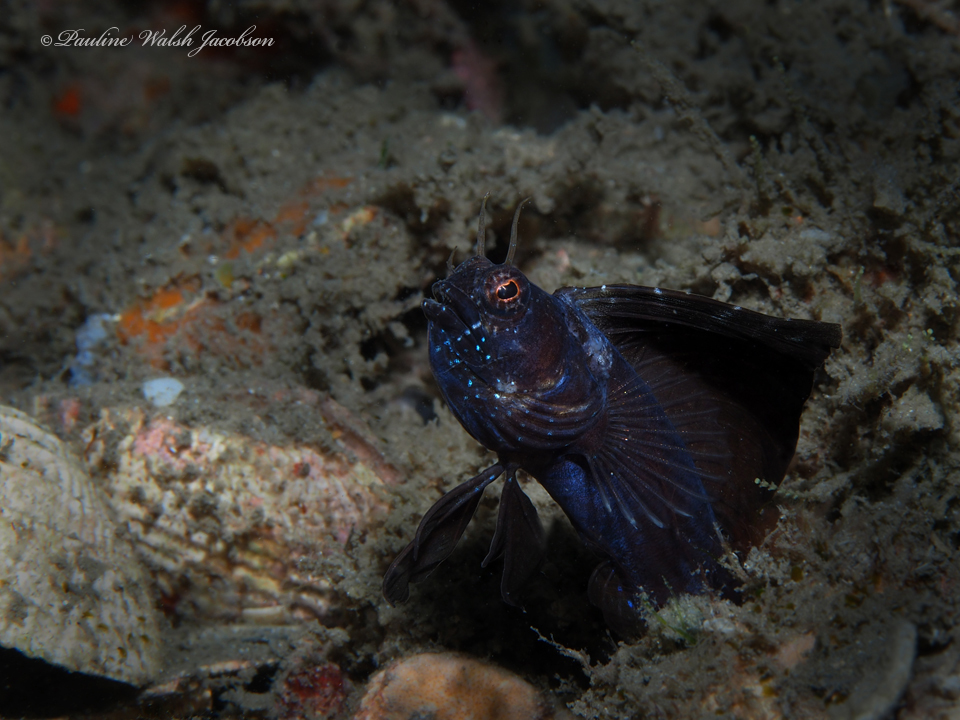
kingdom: Animalia
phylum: Chordata
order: Perciformes
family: Chaenopsidae
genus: Emblemaria
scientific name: Emblemaria pandionis
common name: Sailfin blenny
